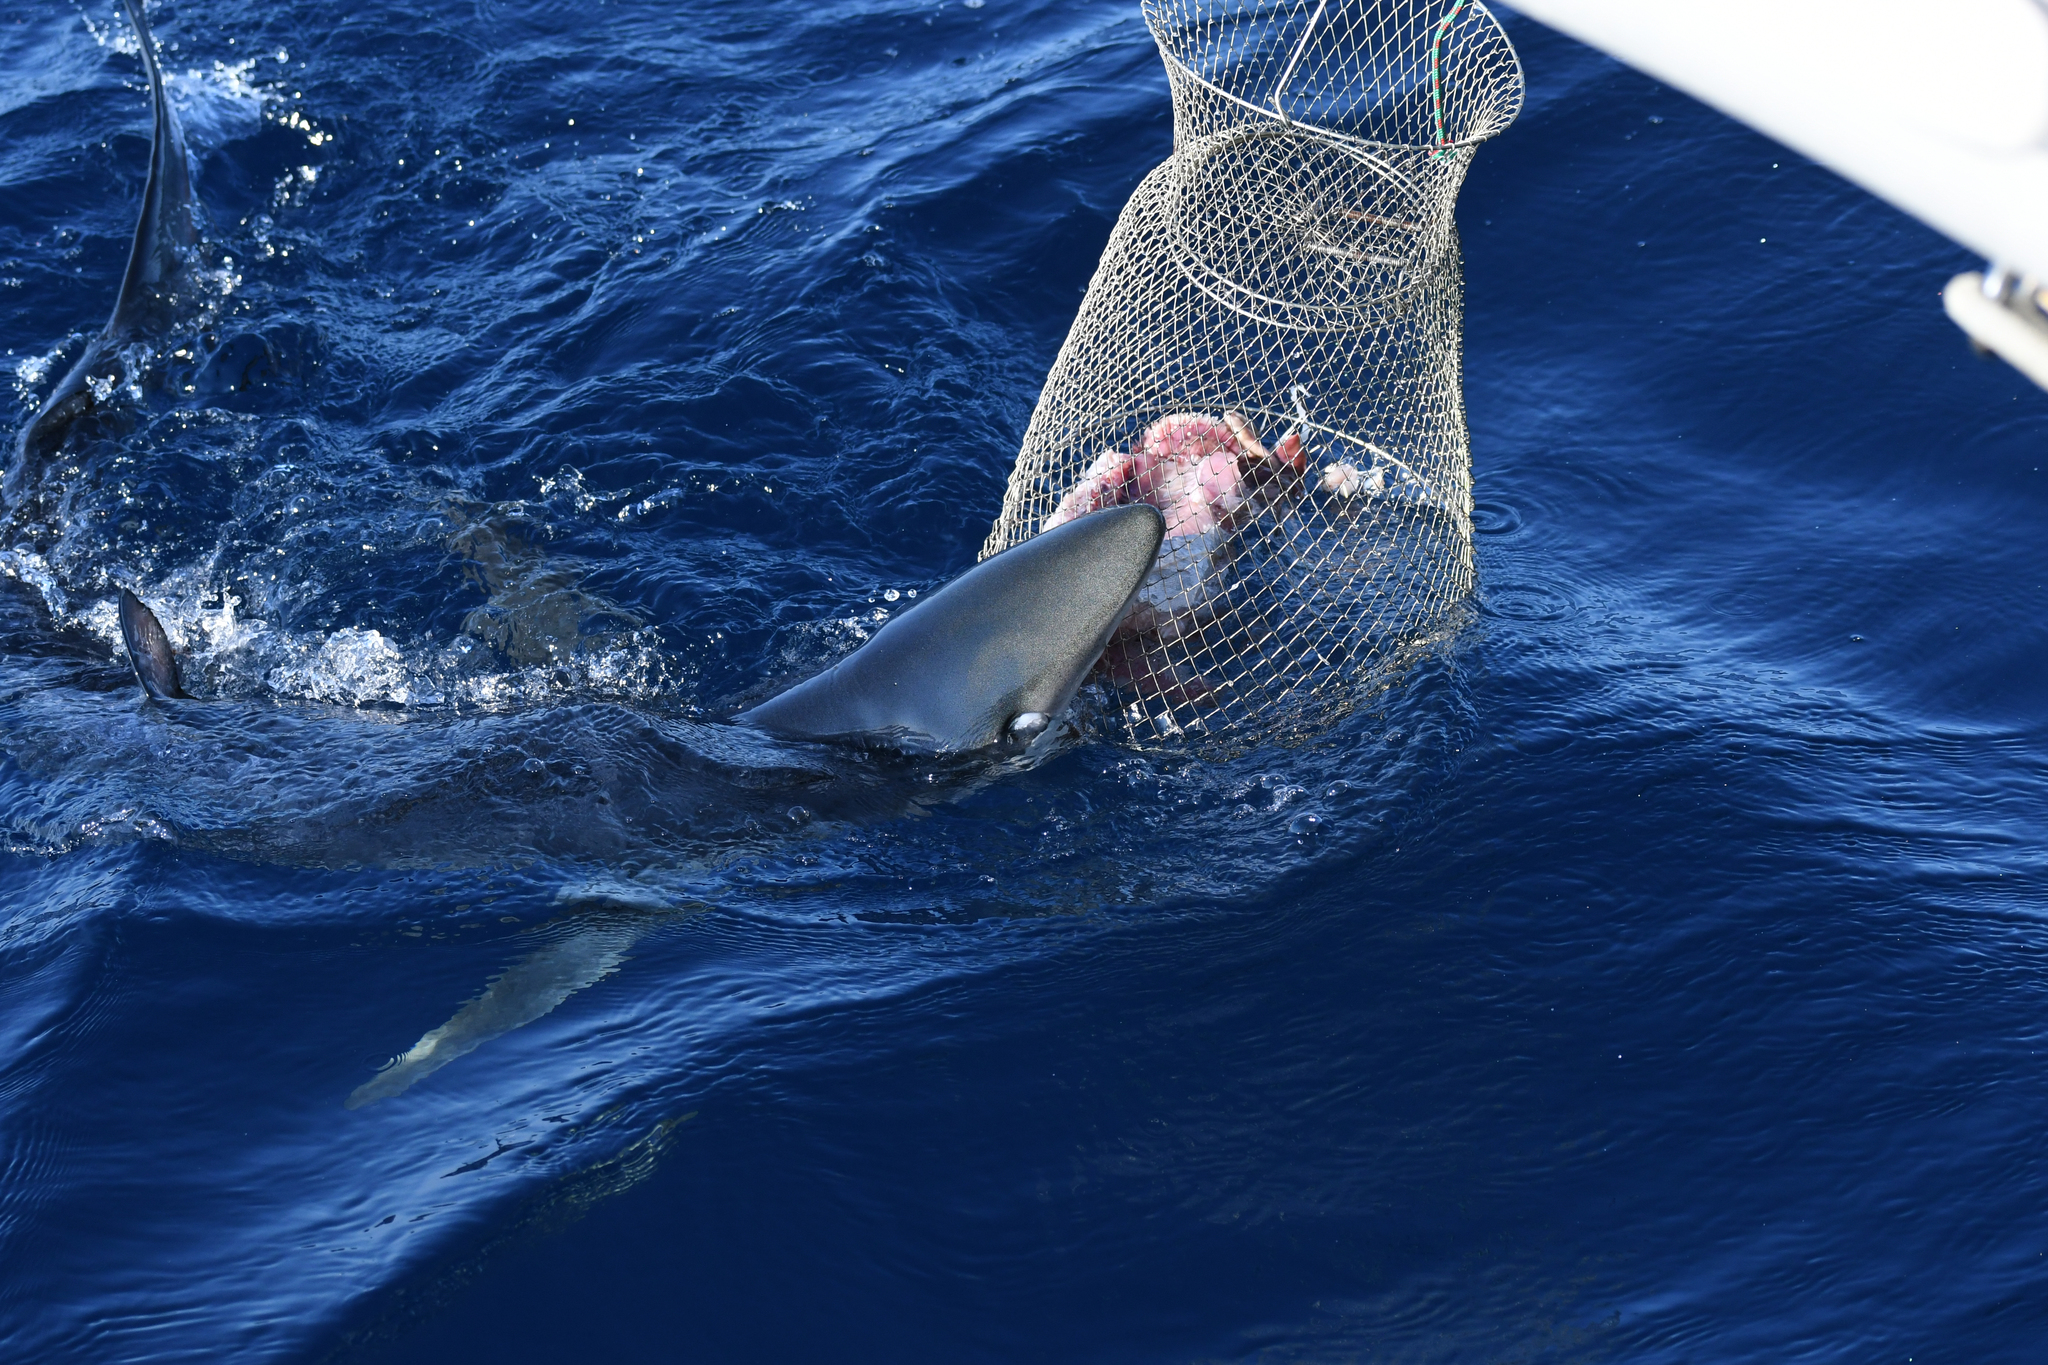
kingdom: Animalia
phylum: Chordata
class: Elasmobranchii
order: Carcharhiniformes
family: Carcharhinidae
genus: Prionace
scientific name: Prionace glauca
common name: Blue shark
